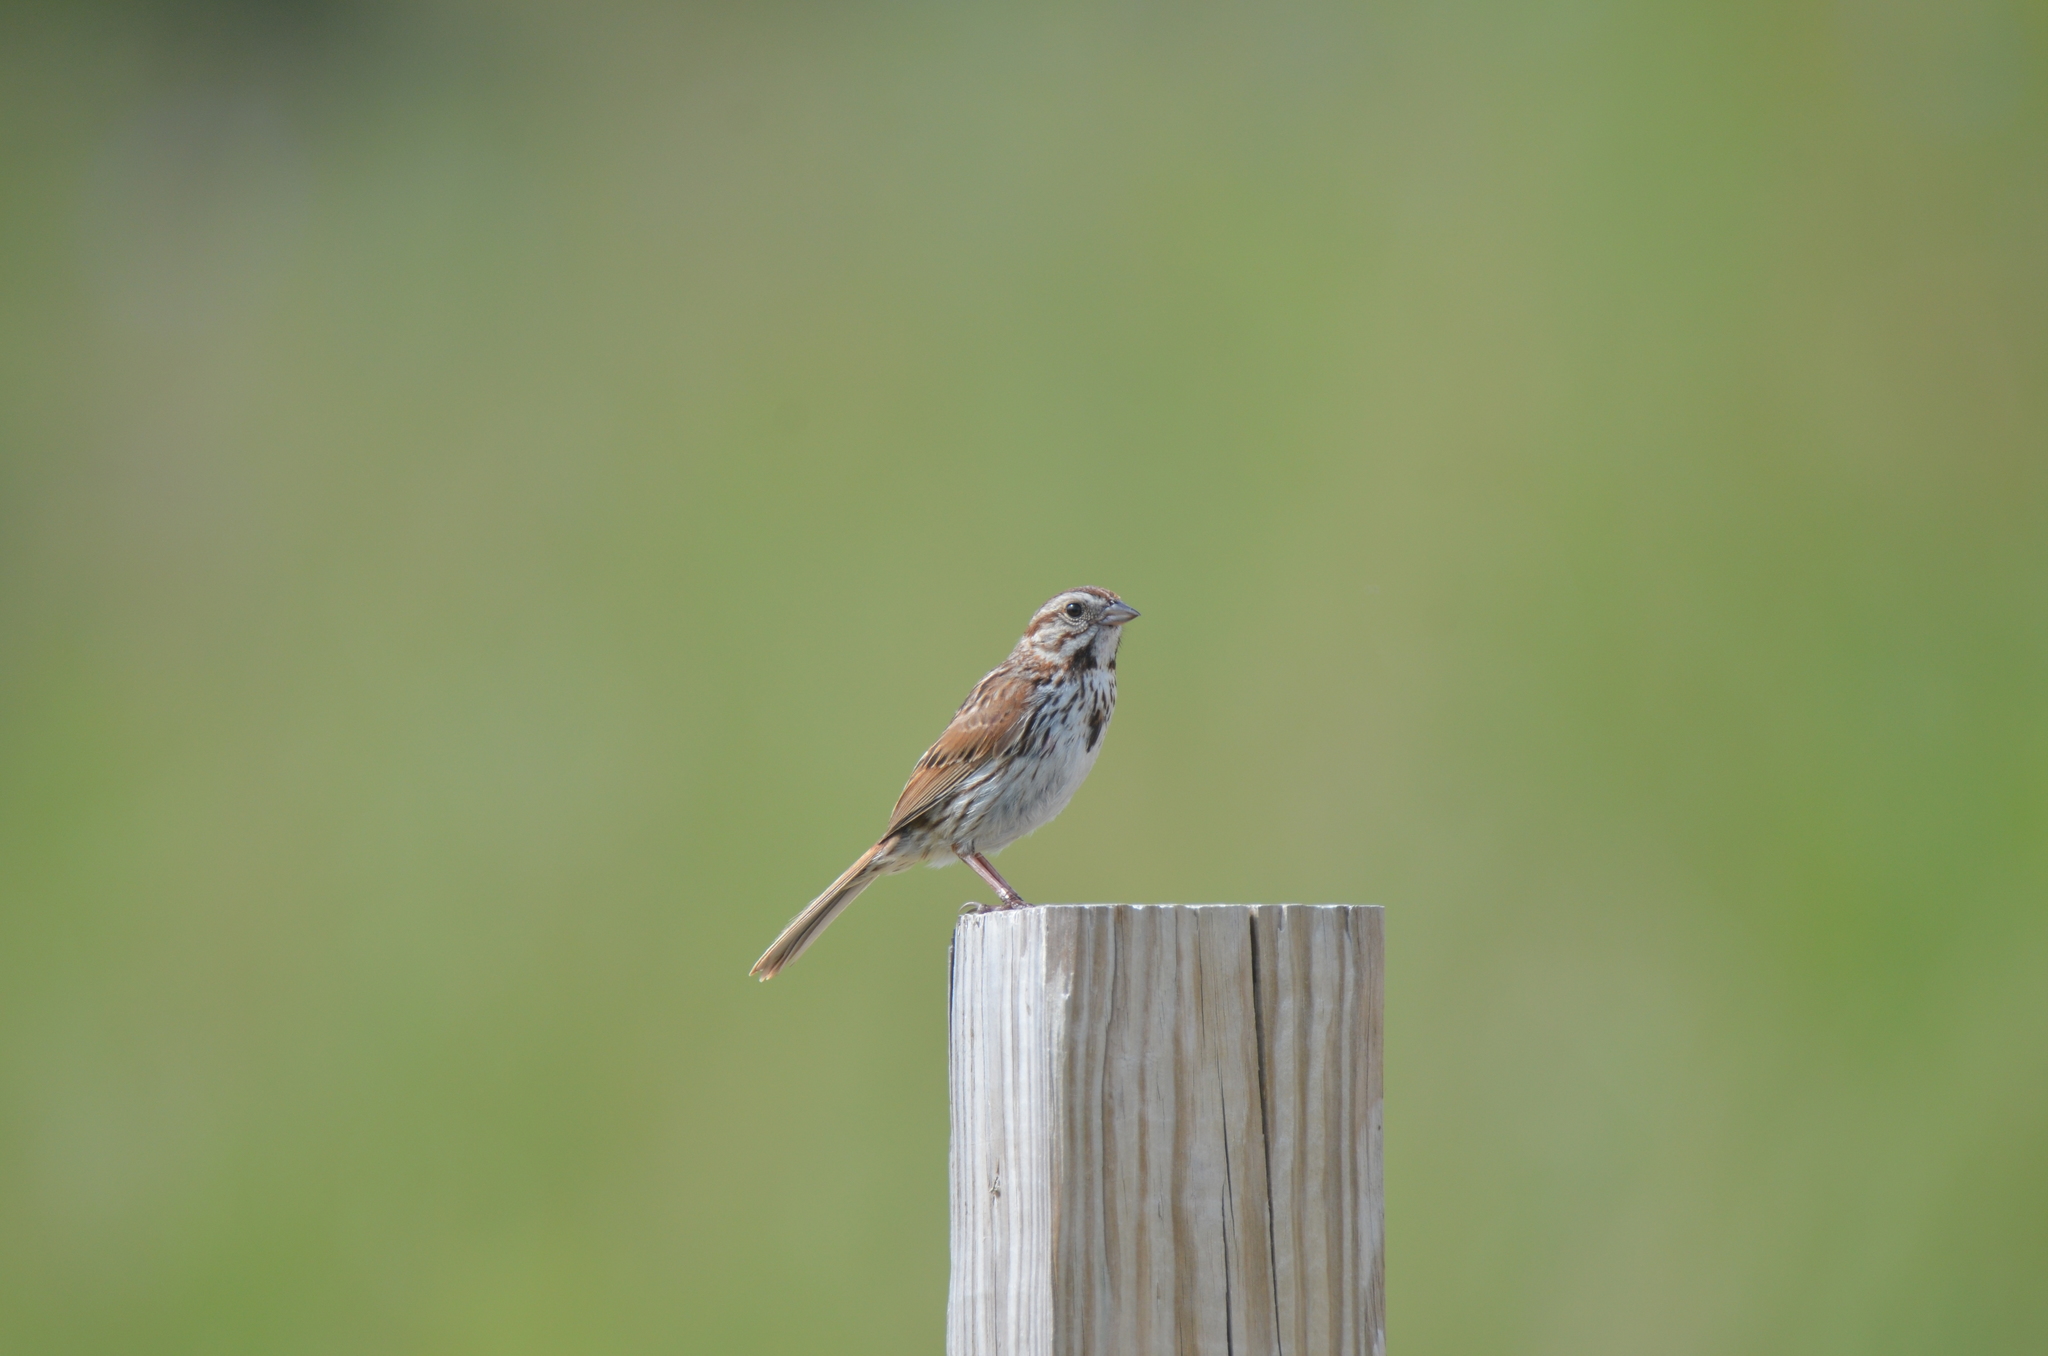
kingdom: Animalia
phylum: Chordata
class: Aves
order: Passeriformes
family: Passerellidae
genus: Melospiza
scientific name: Melospiza melodia
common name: Song sparrow
